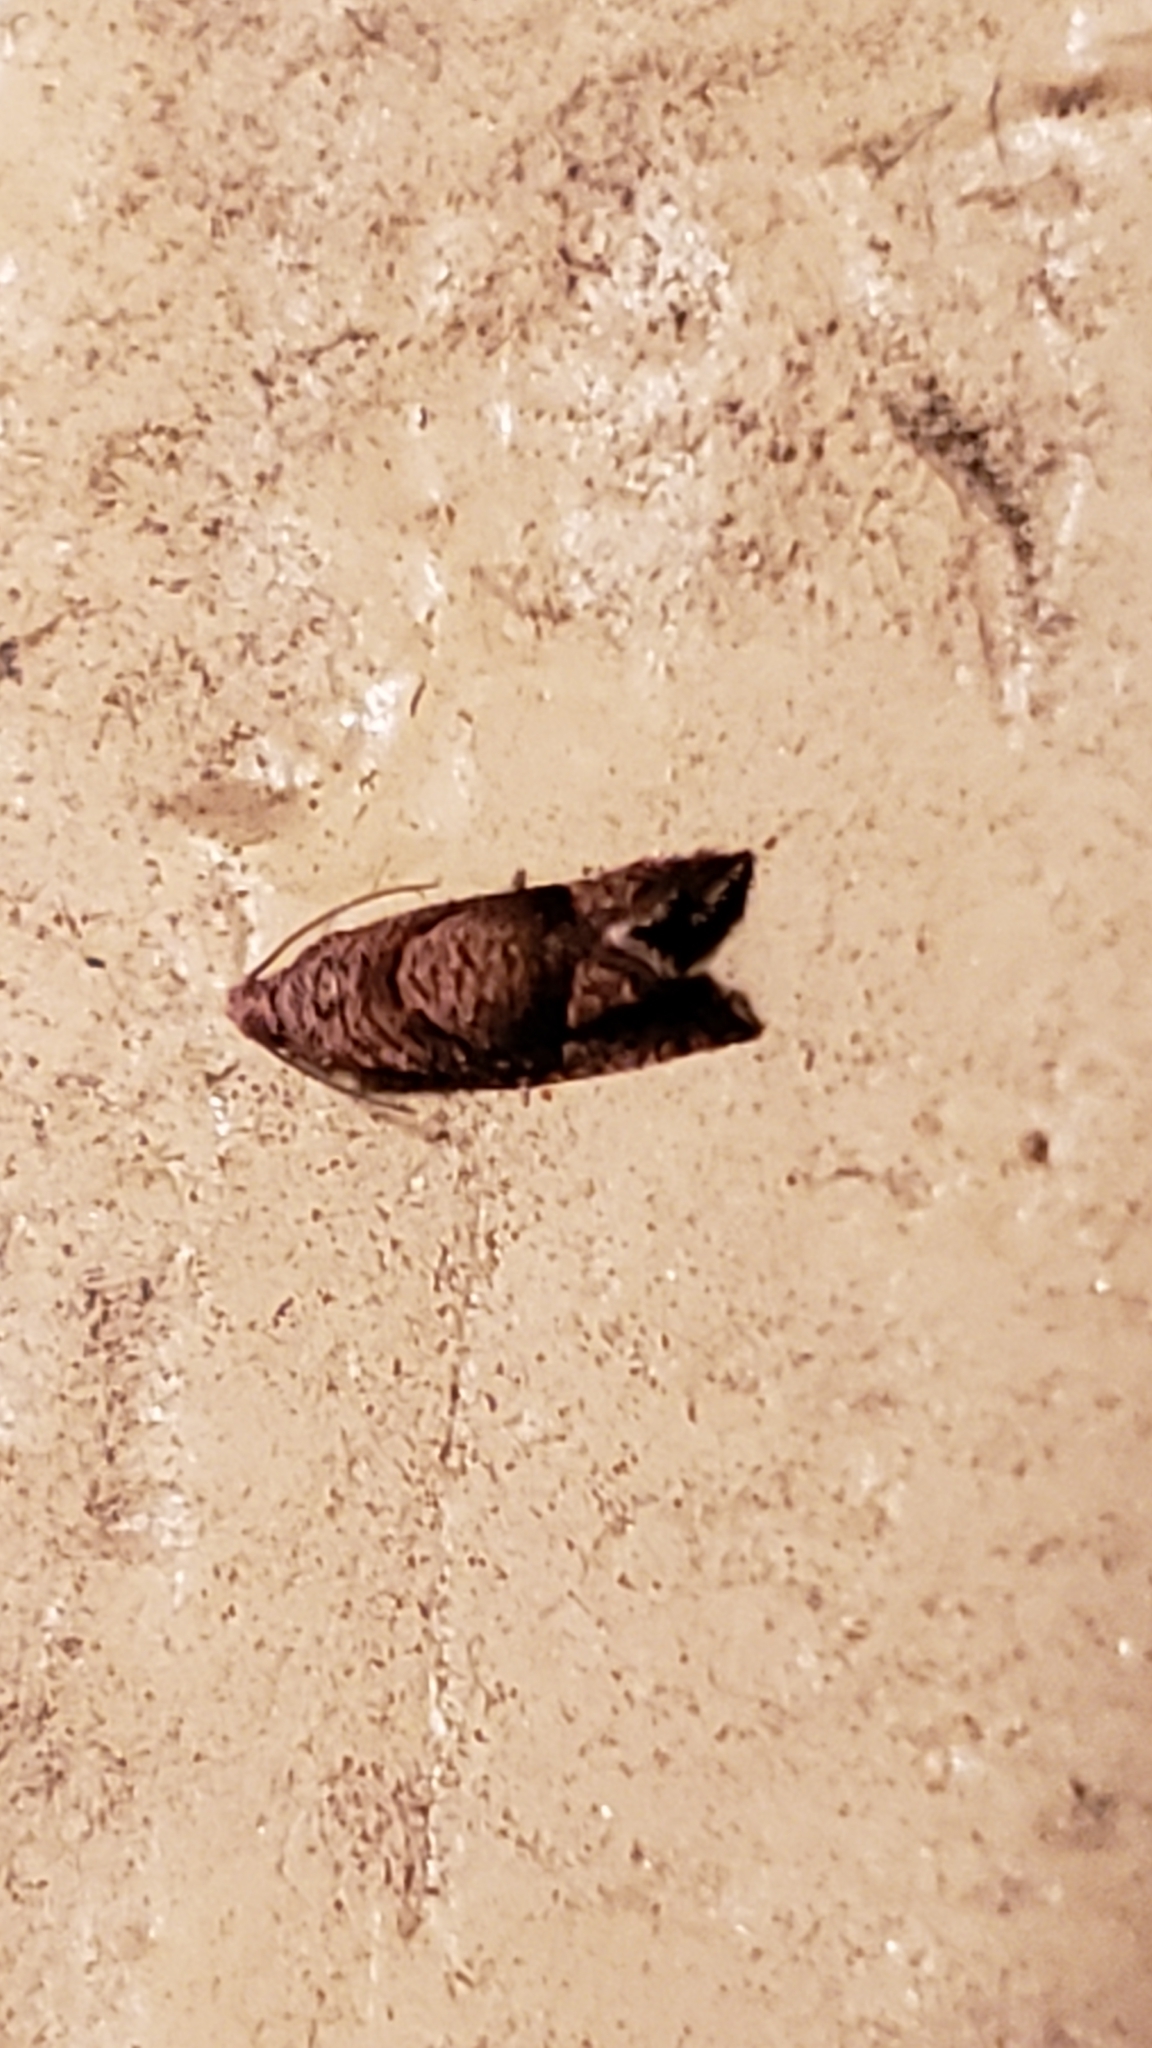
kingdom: Animalia
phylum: Arthropoda
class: Insecta
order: Lepidoptera
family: Tortricidae
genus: Pelochrista
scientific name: Pelochrista derelicta
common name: Derelict pelochrista moth
